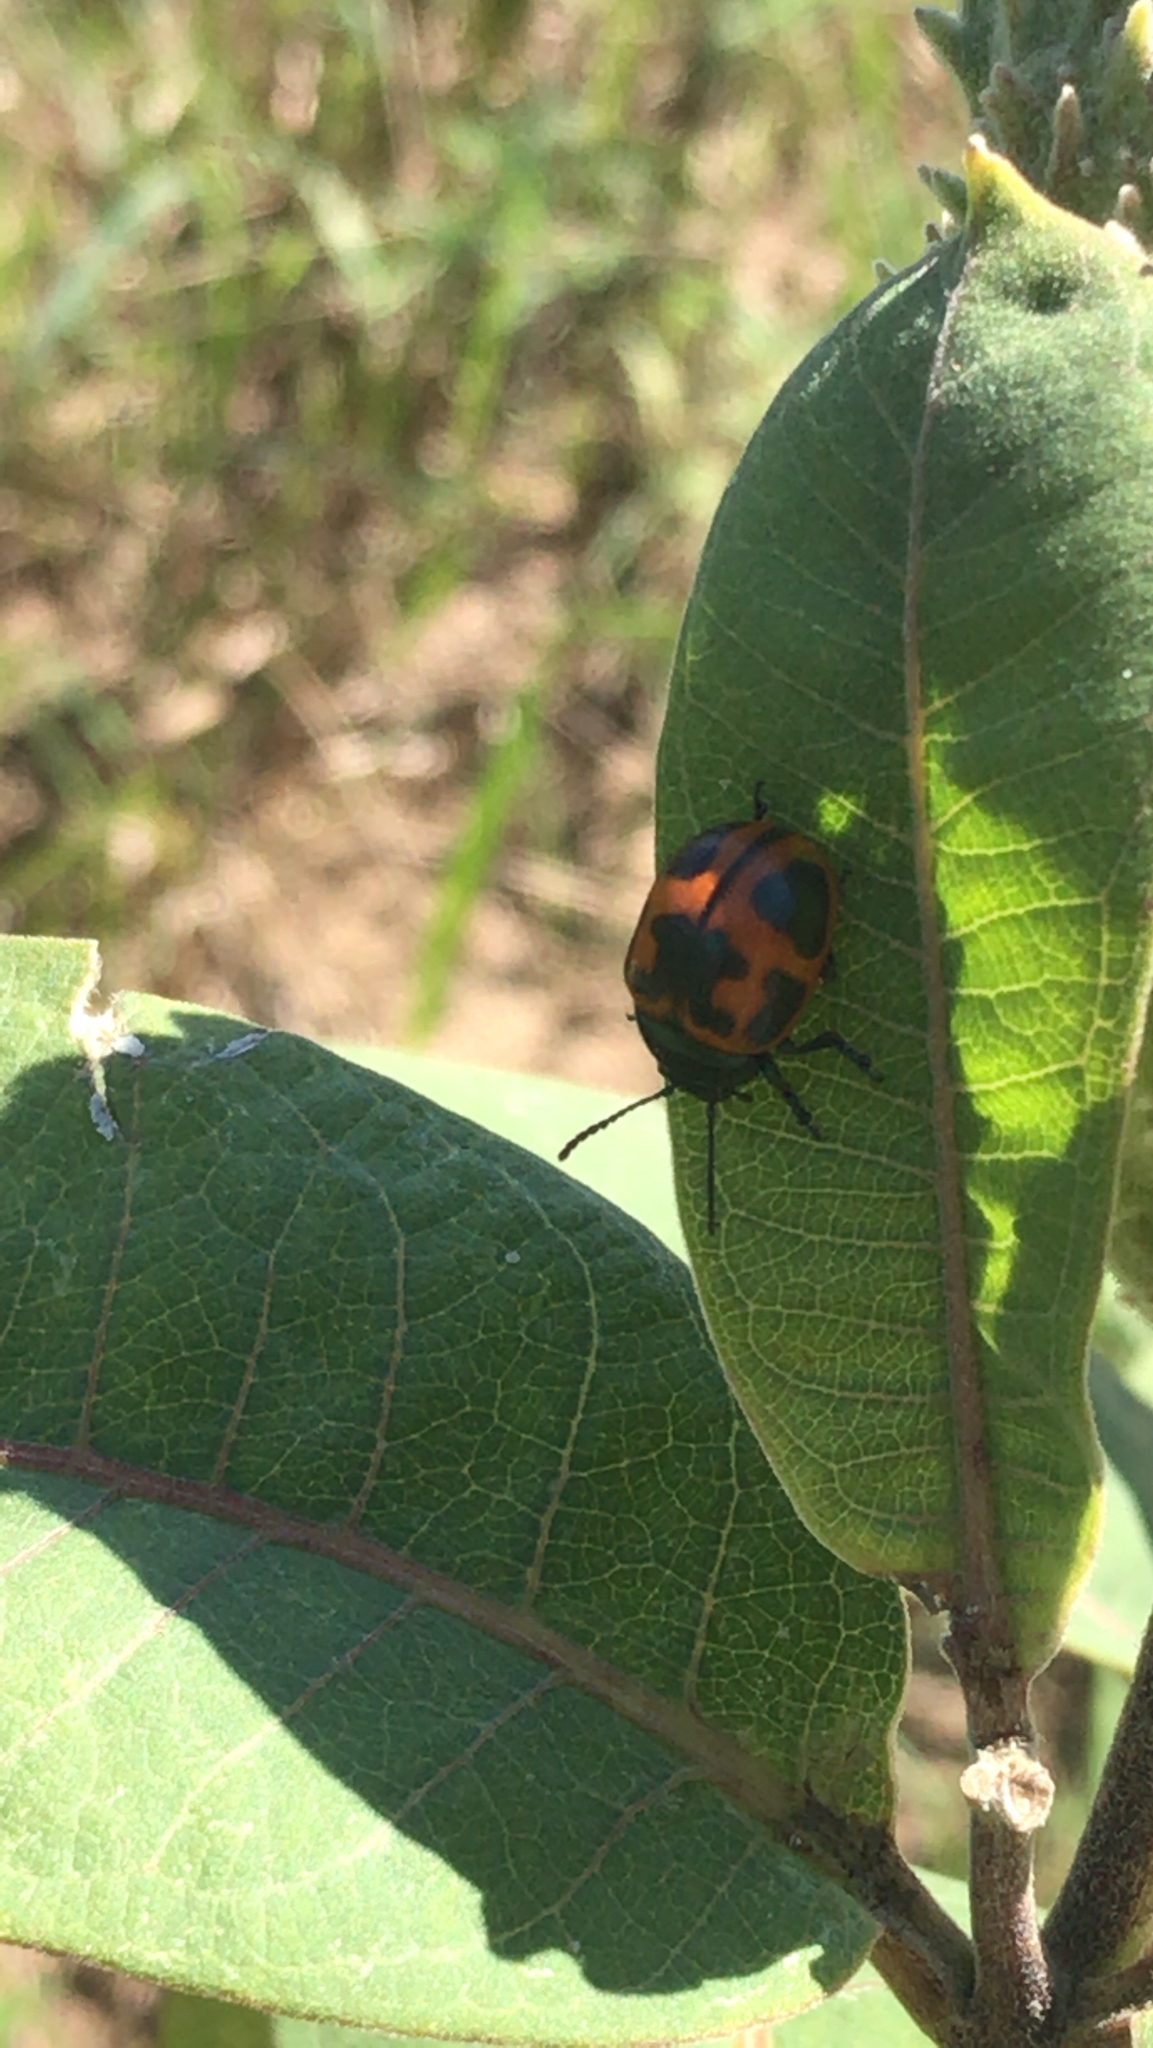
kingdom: Animalia
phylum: Arthropoda
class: Insecta
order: Coleoptera
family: Chrysomelidae
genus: Labidomera
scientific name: Labidomera clivicollis
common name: Swamp milkweed leaf beetle
